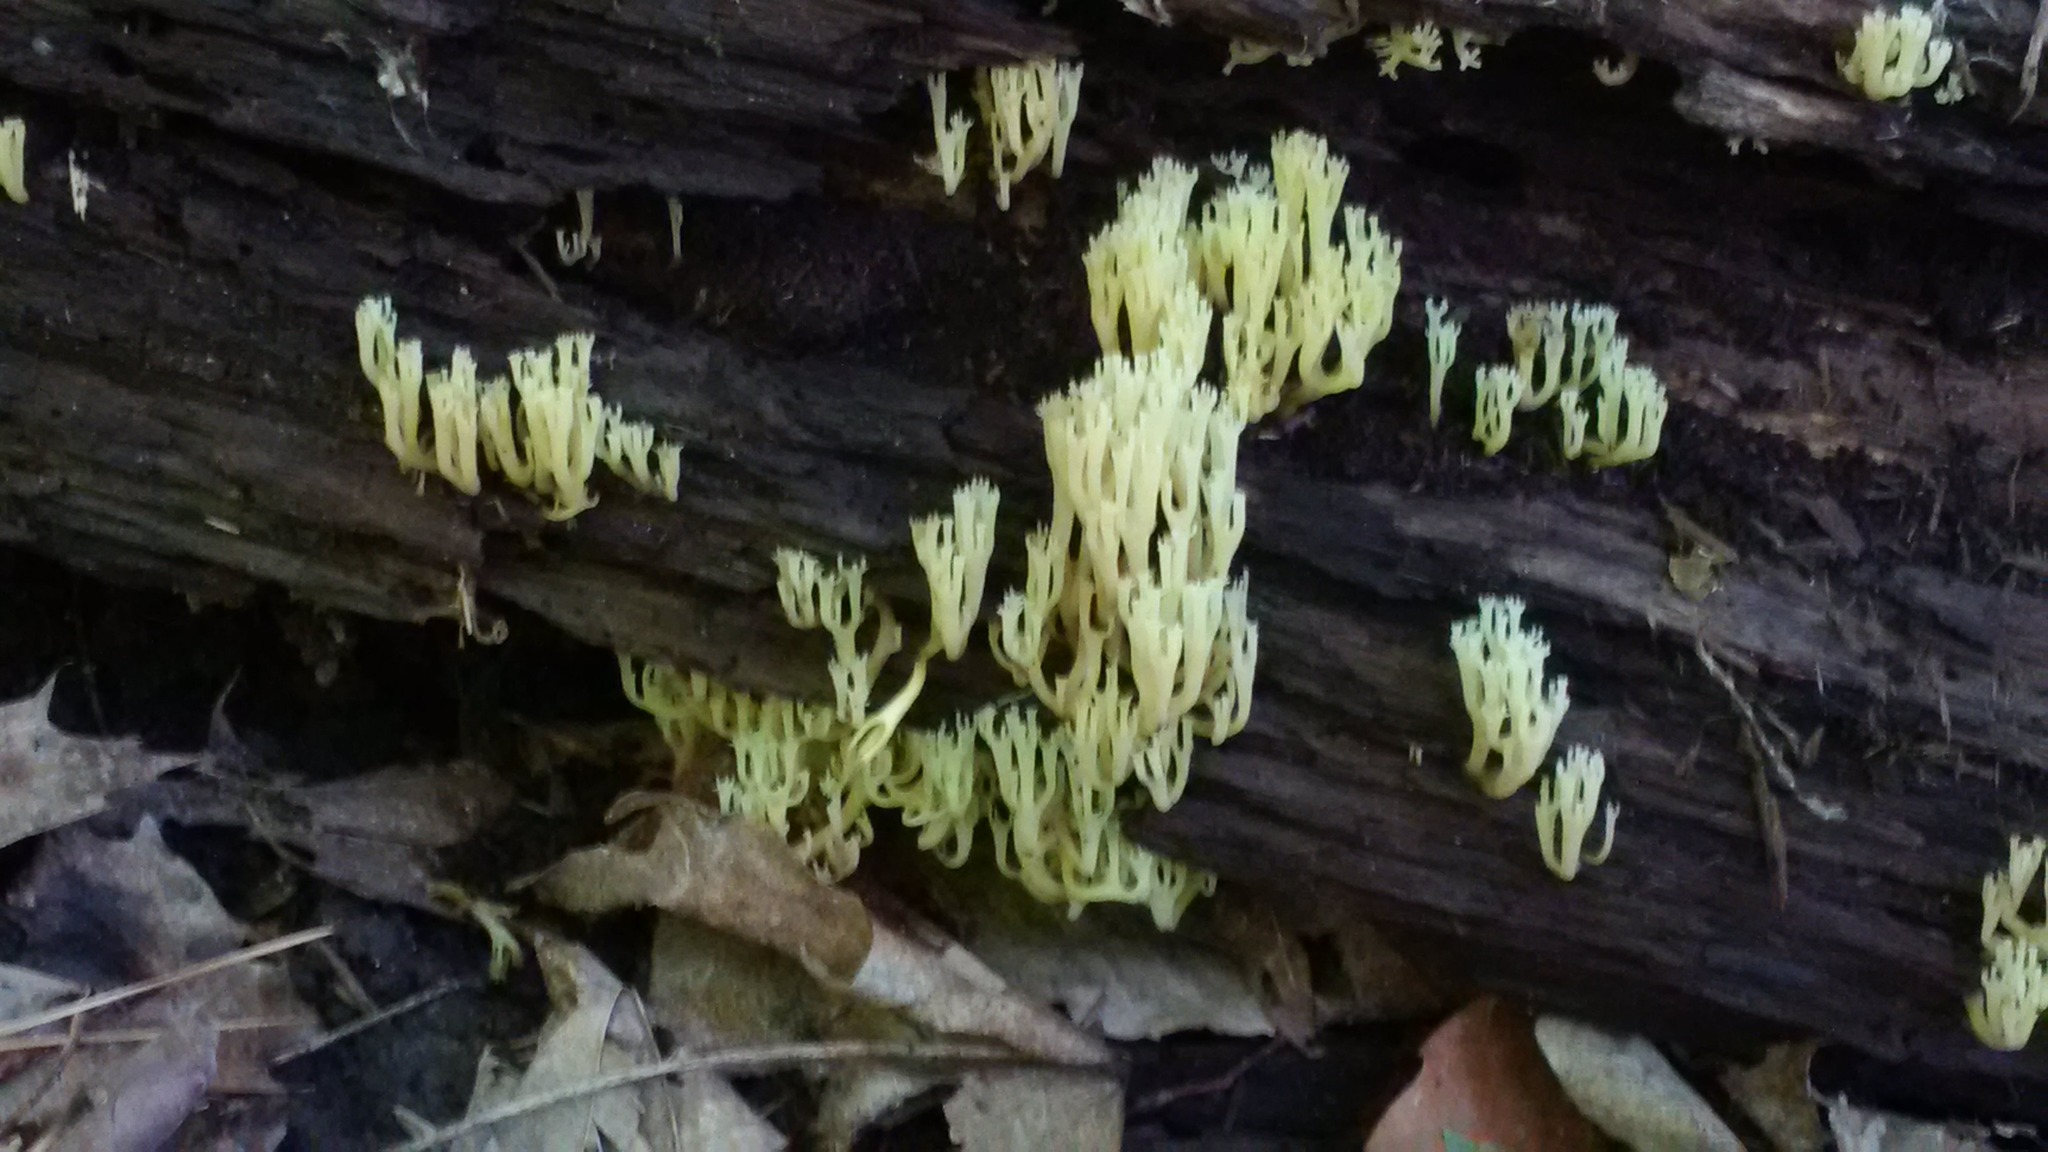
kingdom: Fungi
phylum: Basidiomycota
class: Agaricomycetes
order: Russulales
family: Auriscalpiaceae
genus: Artomyces
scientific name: Artomyces pyxidatus
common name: Crown-tipped coral fungus
